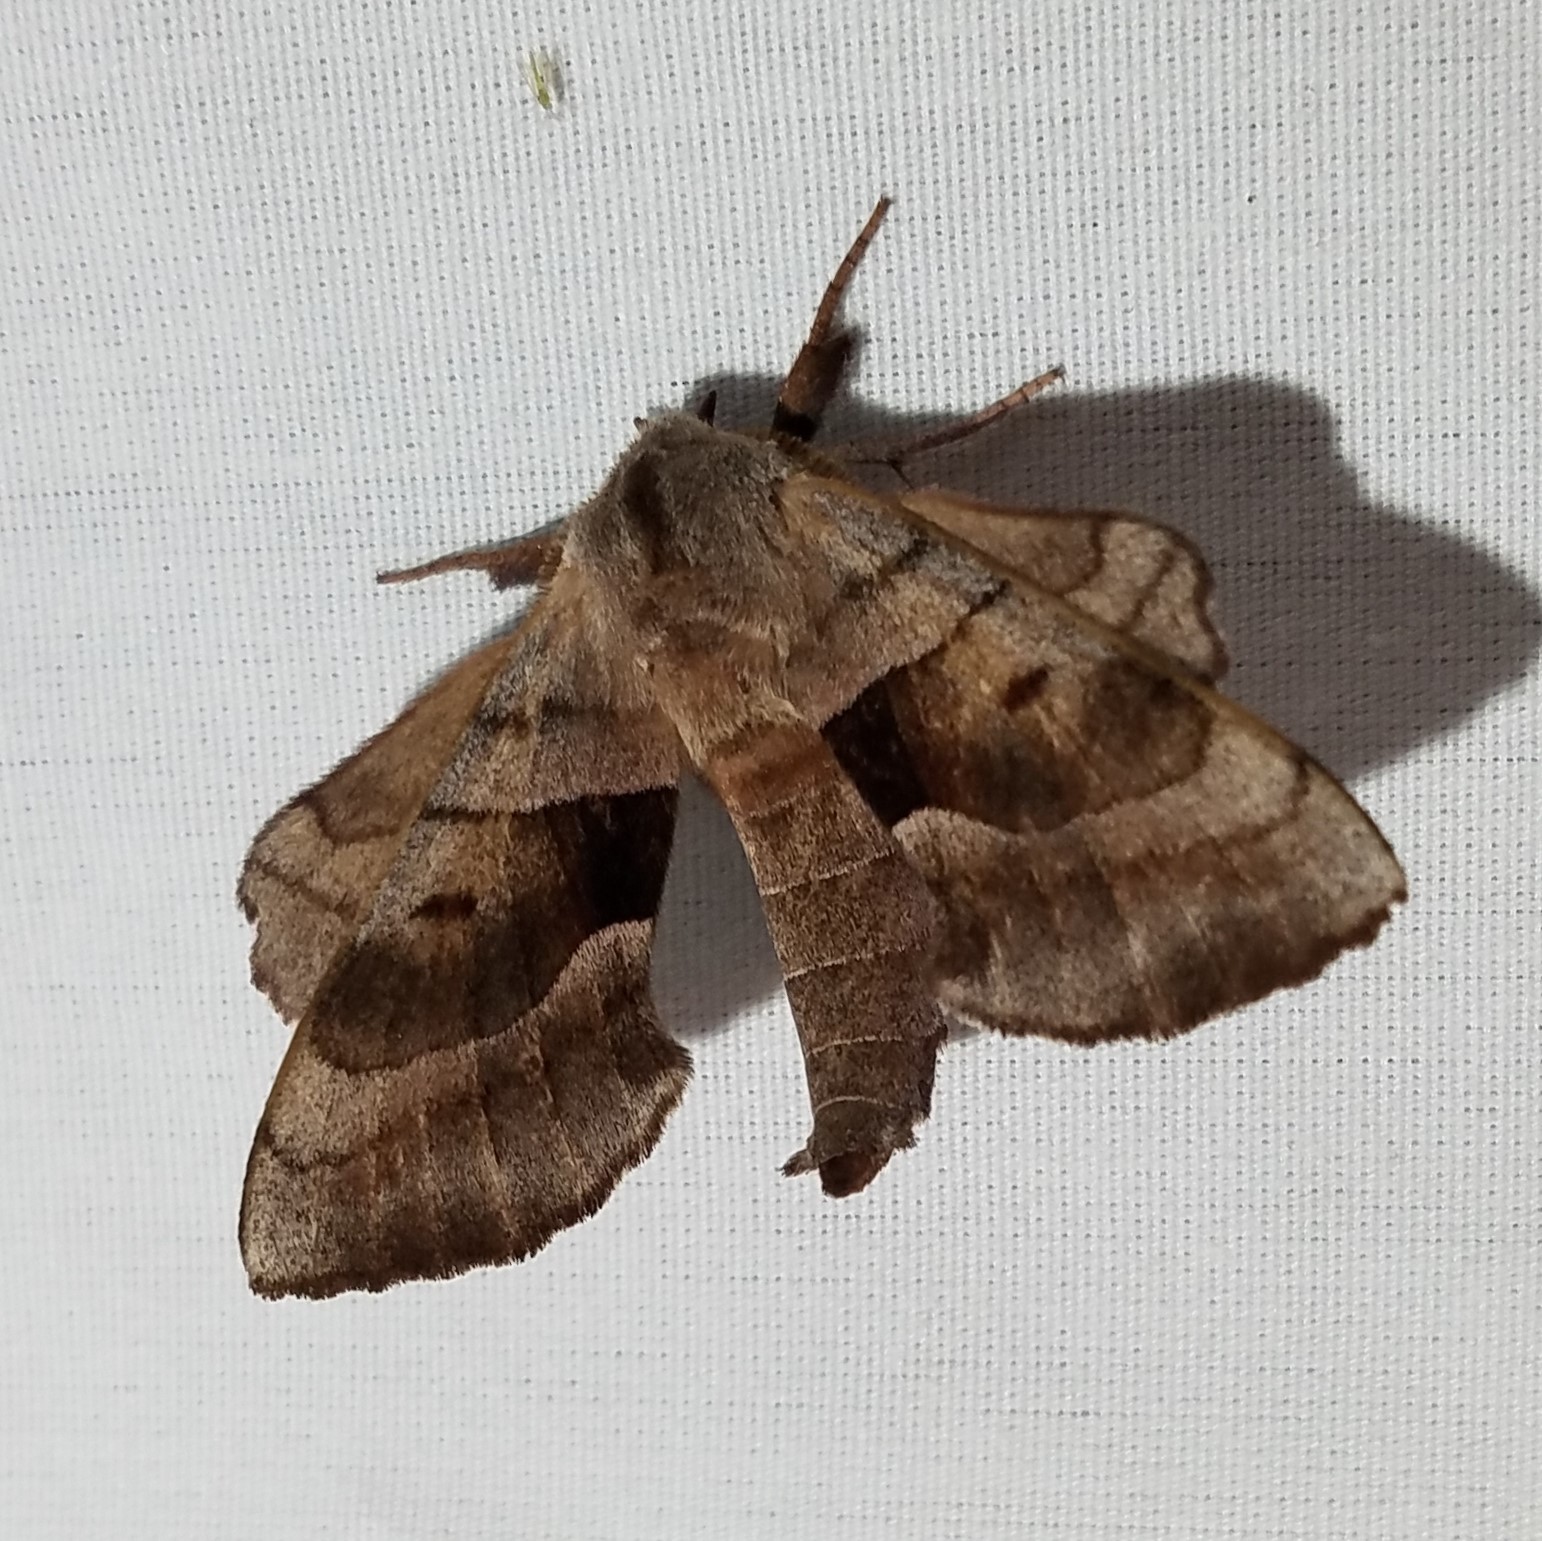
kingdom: Animalia
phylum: Arthropoda
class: Insecta
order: Lepidoptera
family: Sphingidae
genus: Amorpha
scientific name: Amorpha juglandis
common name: Walnut sphinx
